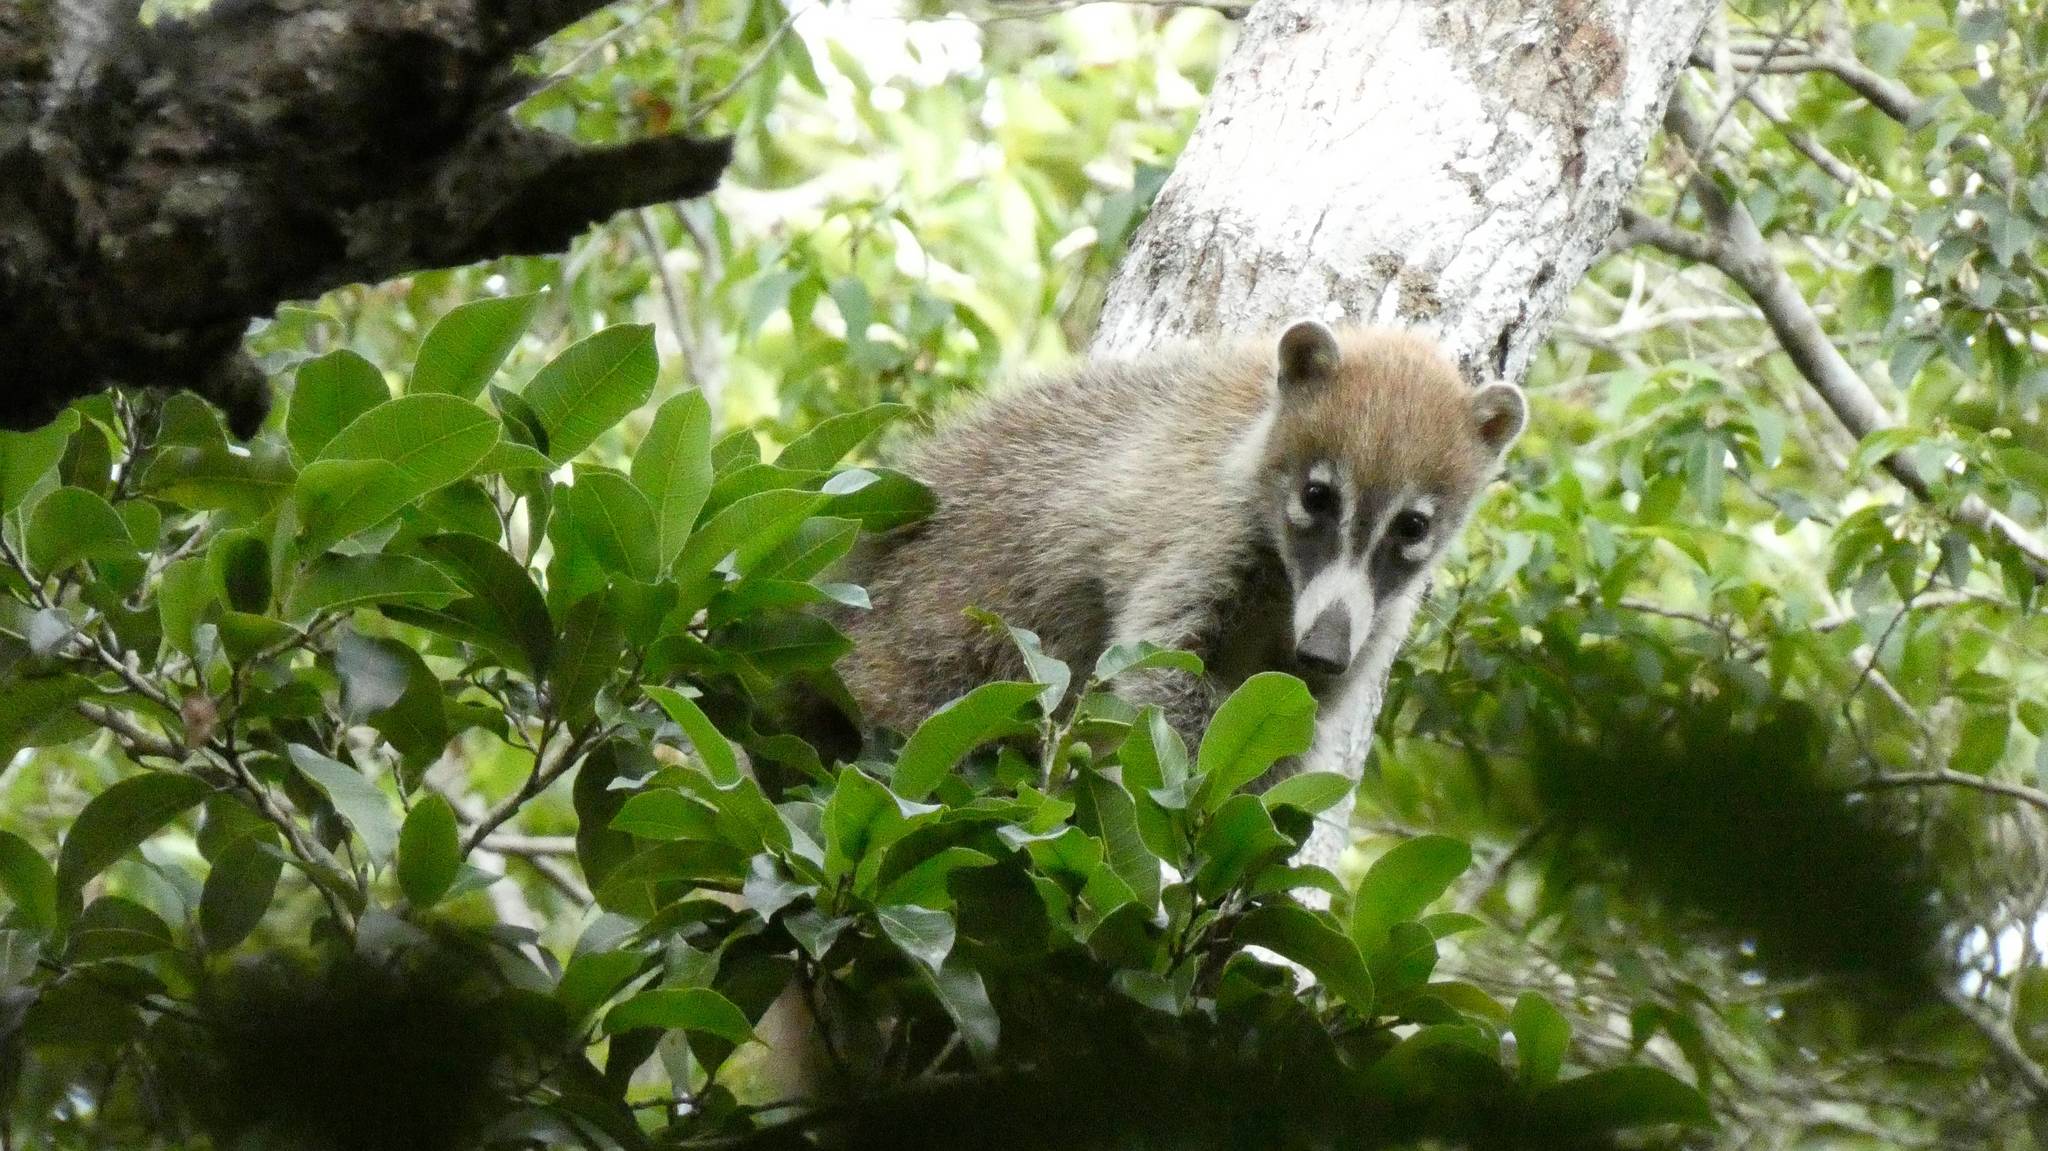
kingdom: Animalia
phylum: Chordata
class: Mammalia
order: Carnivora
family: Procyonidae
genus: Nasua
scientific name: Nasua narica
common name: White-nosed coati
